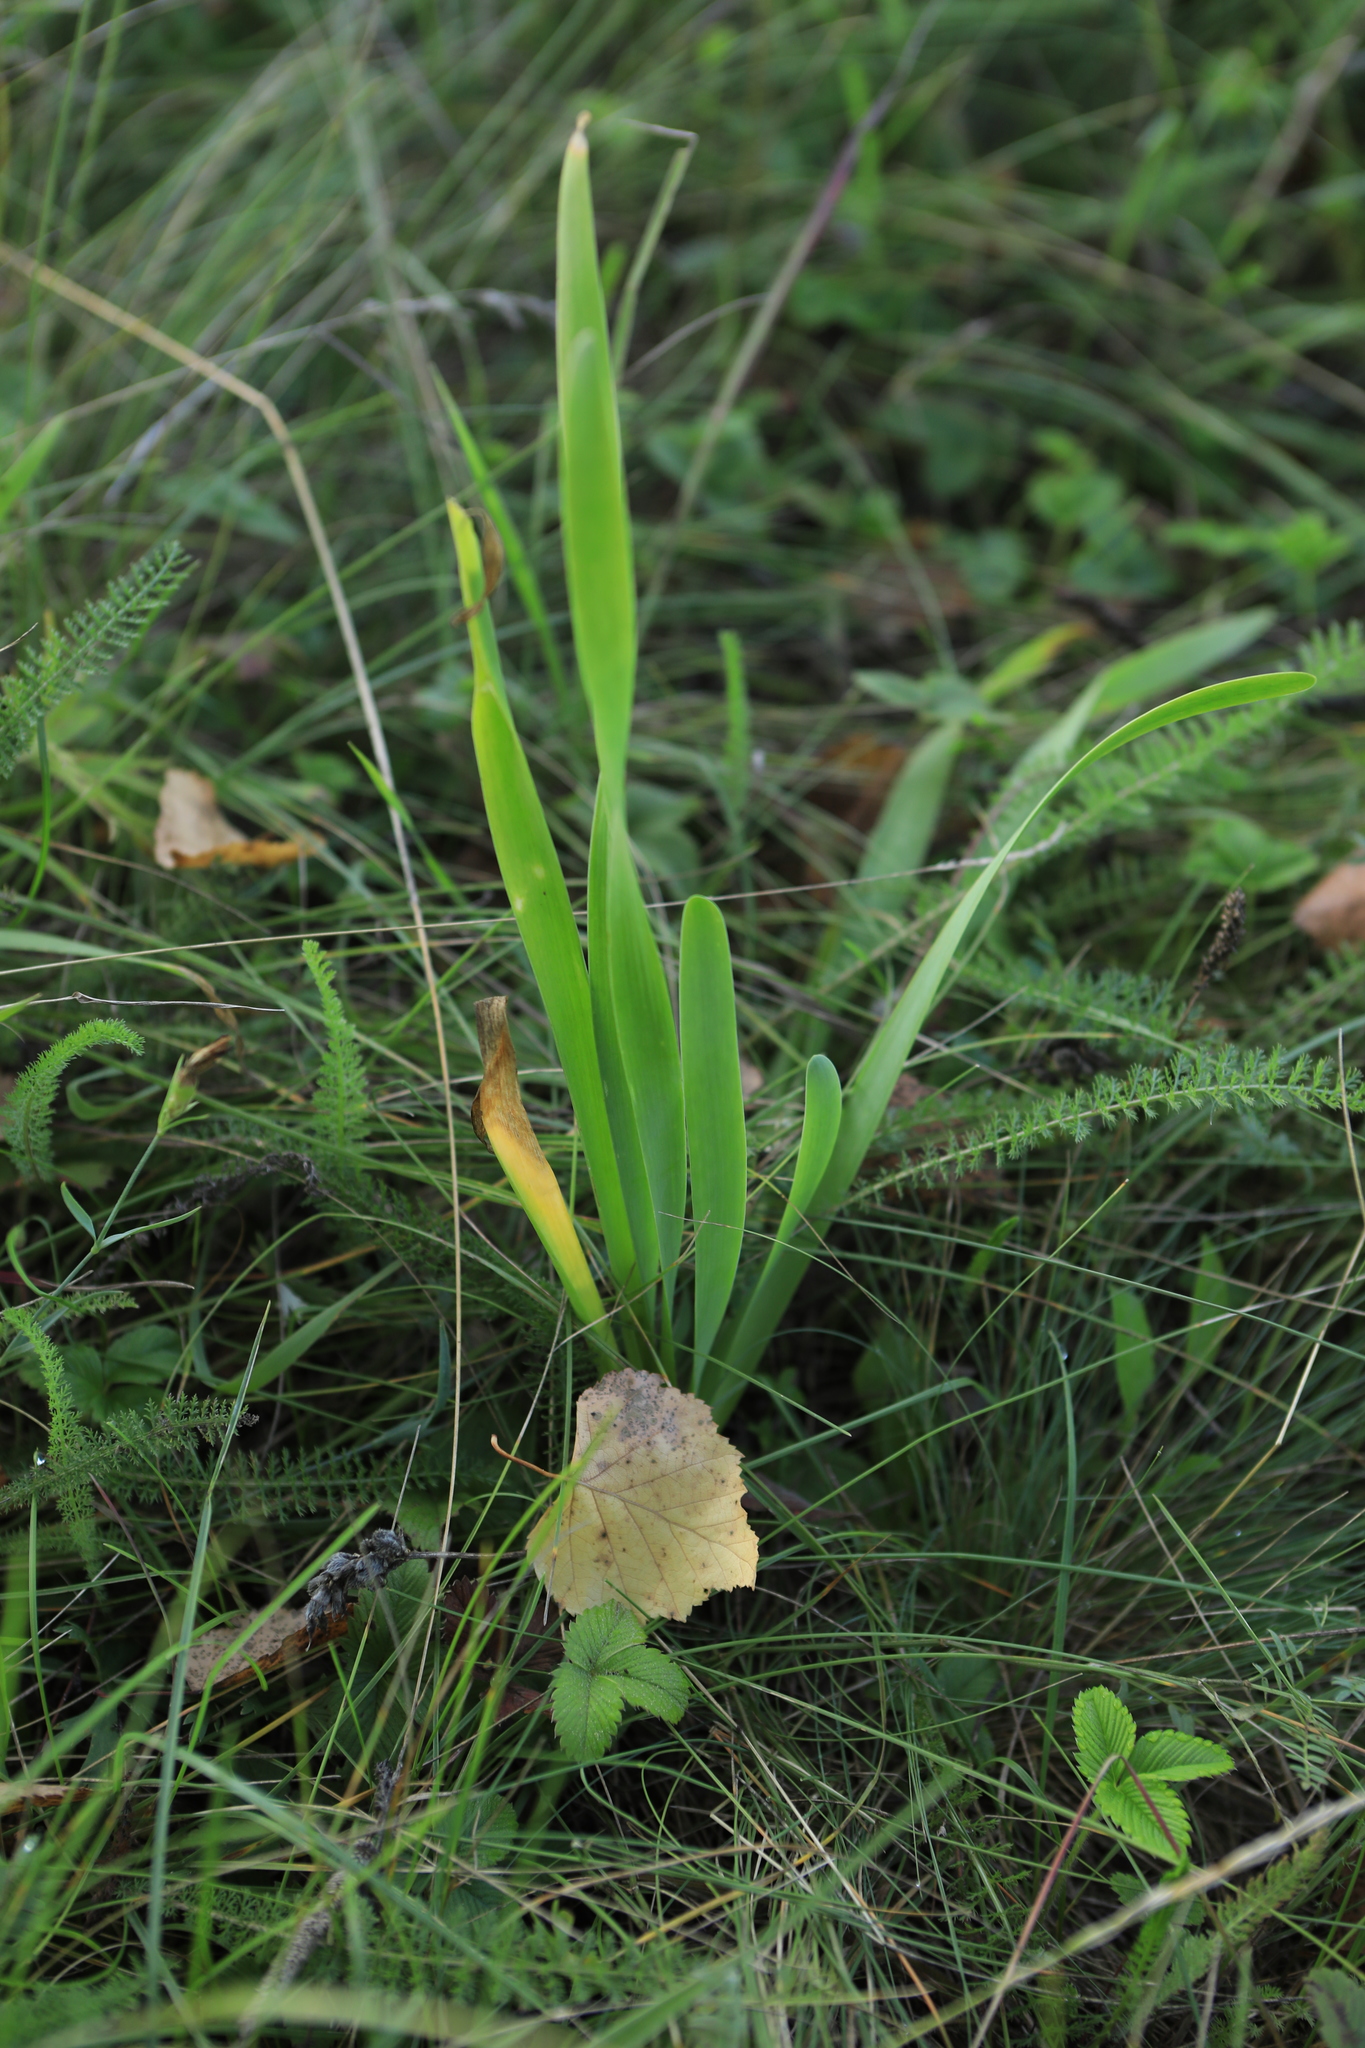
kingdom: Plantae
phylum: Tracheophyta
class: Liliopsida
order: Asparagales
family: Amaryllidaceae
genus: Allium
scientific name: Allium nutans
